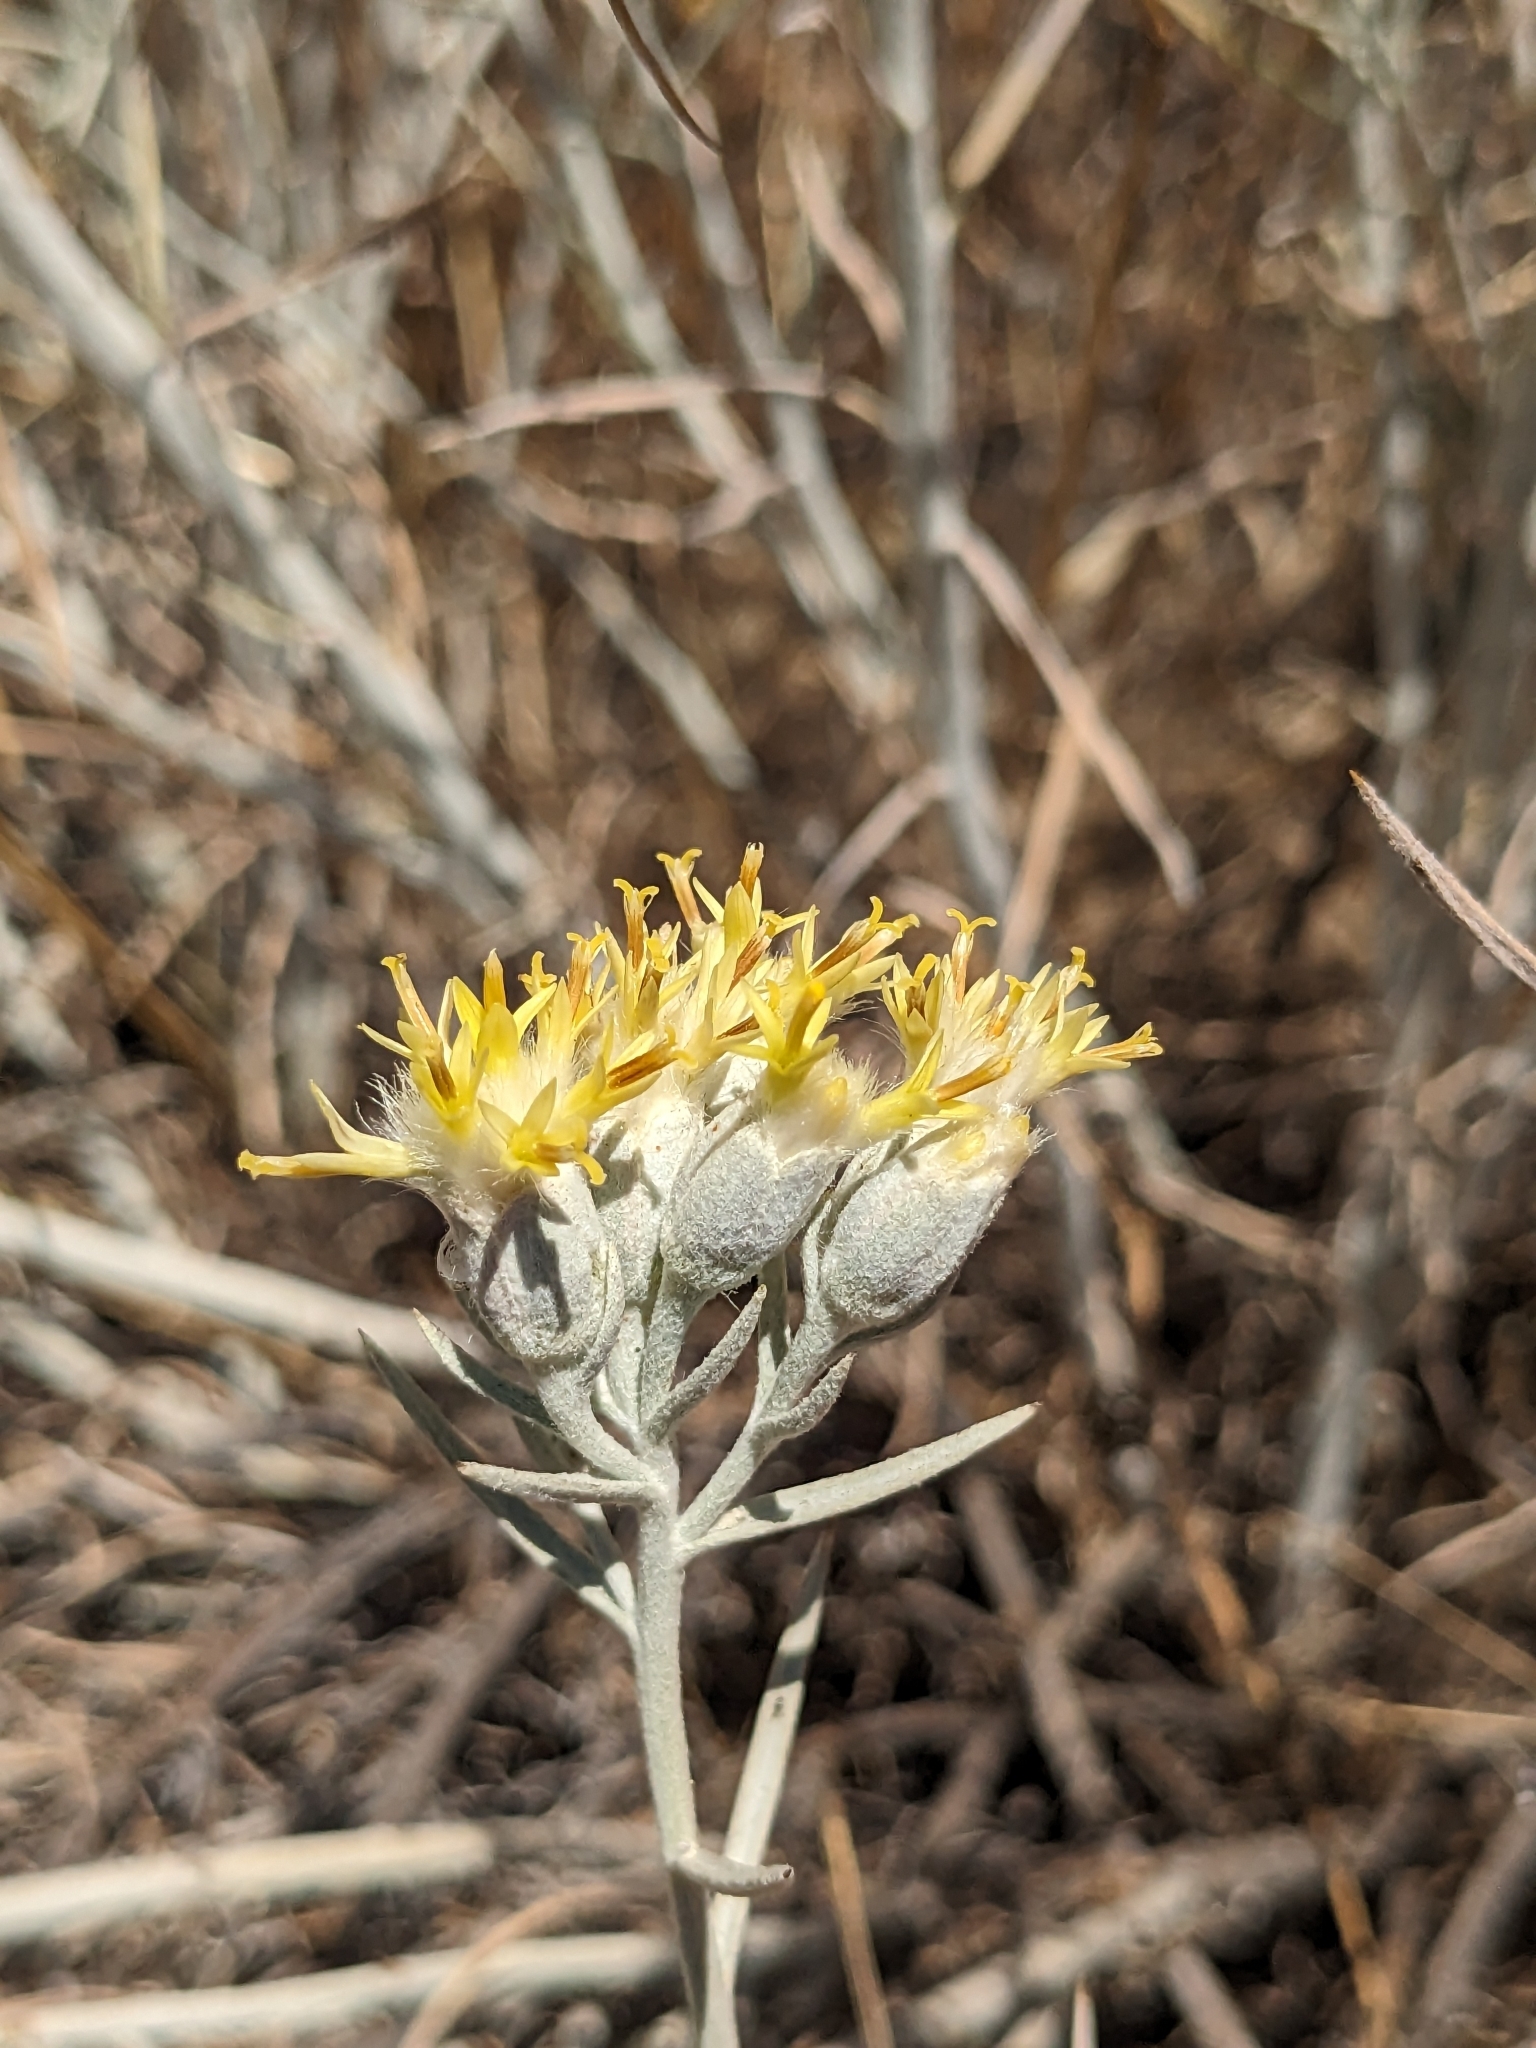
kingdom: Plantae
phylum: Tracheophyta
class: Magnoliopsida
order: Asterales
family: Asteraceae
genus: Tetradymia
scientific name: Tetradymia comosa
